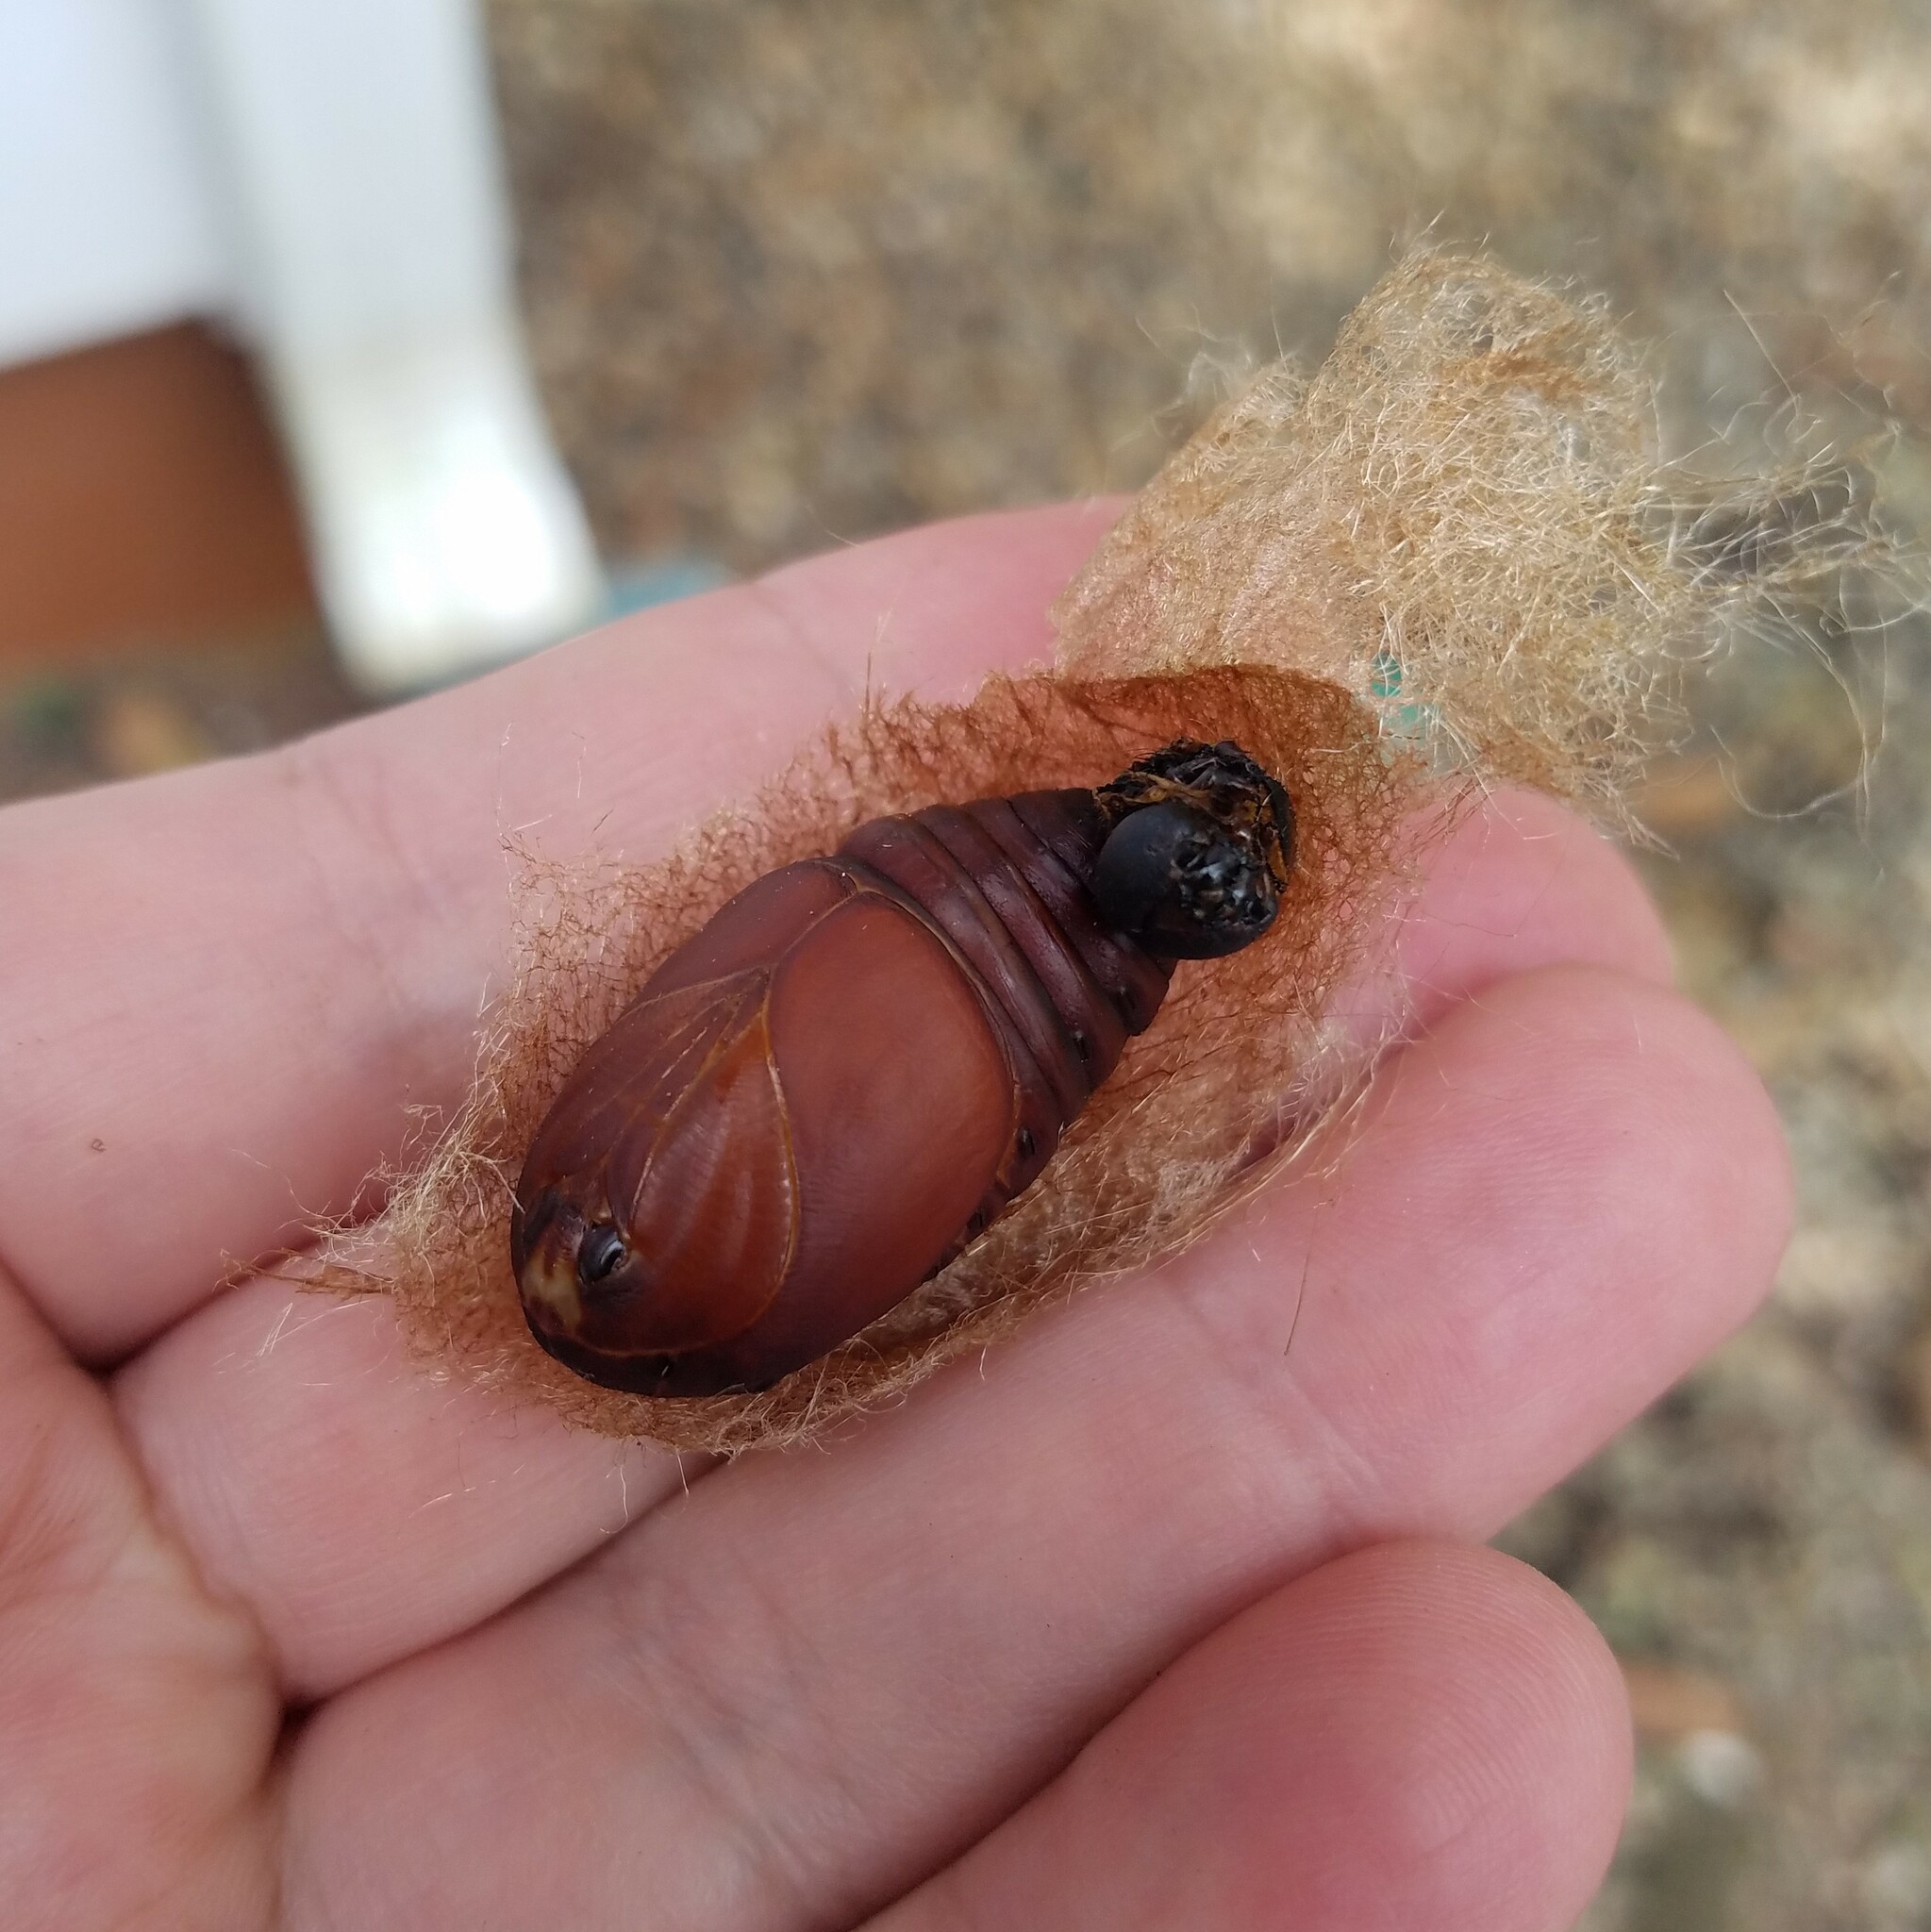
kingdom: Animalia
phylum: Arthropoda
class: Insecta
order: Lepidoptera
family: Saturniidae
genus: Actias
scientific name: Actias luna
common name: Luna moth
